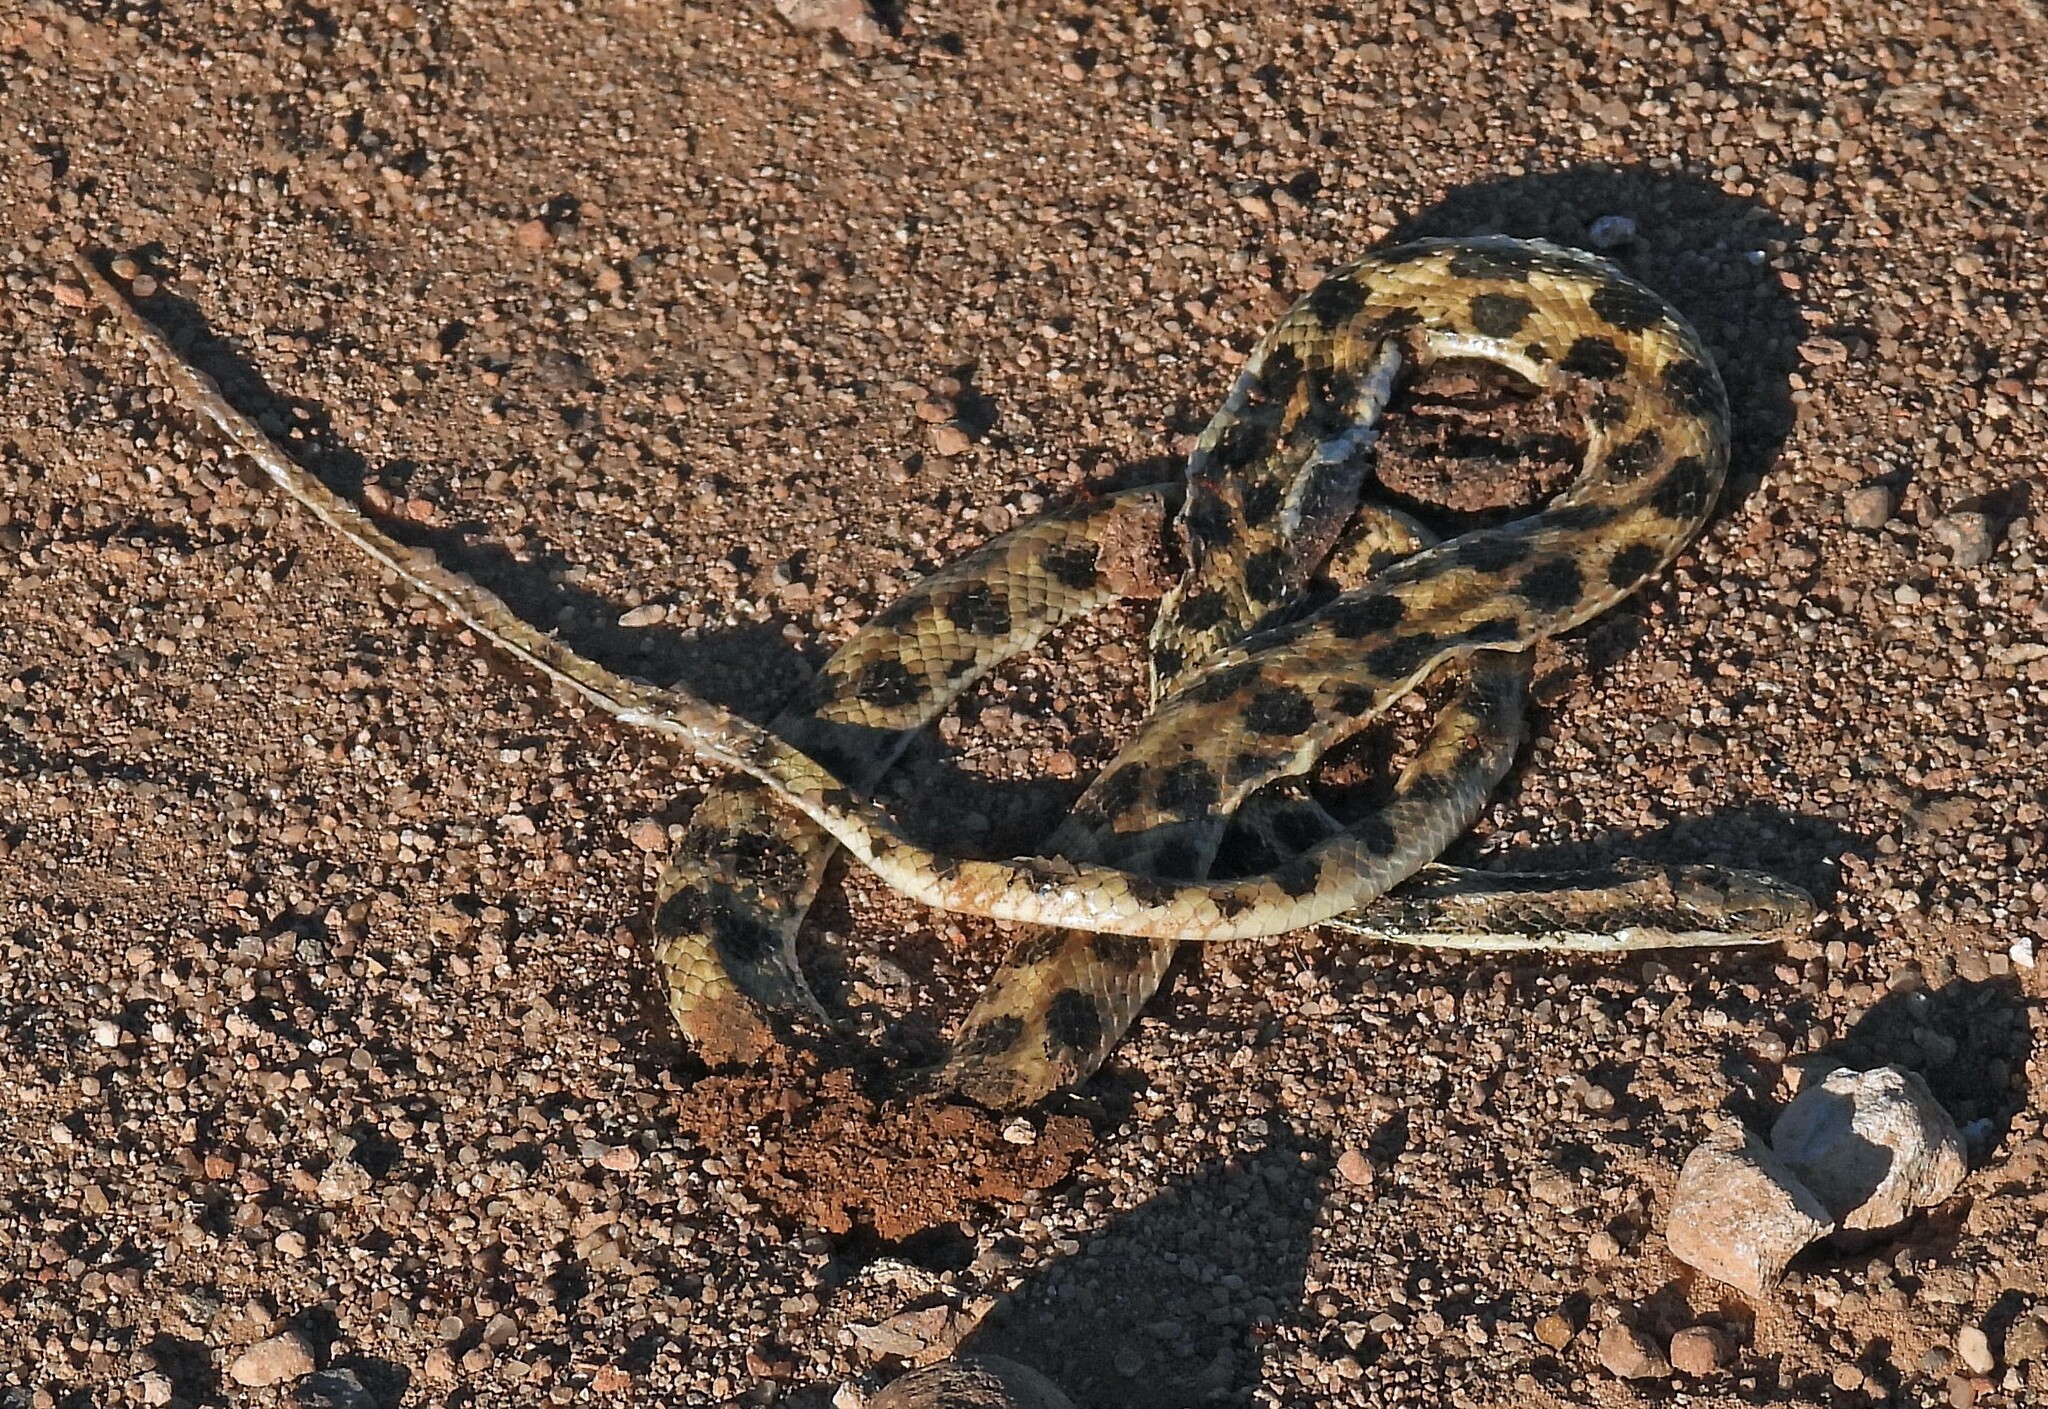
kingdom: Animalia
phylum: Chordata
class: Squamata
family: Colubridae
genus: Erythrolamprus
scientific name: Erythrolamprus sagittifer
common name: Arrow ground snake
